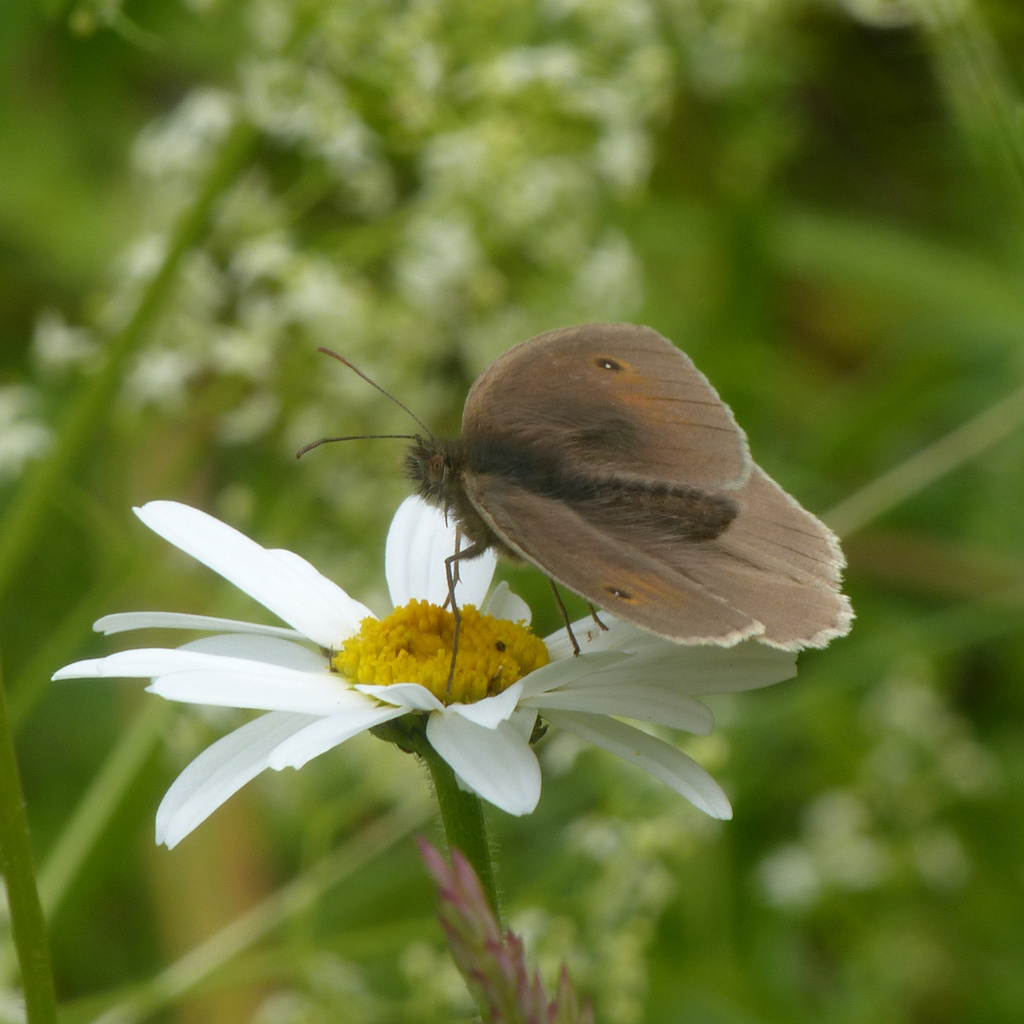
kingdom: Animalia
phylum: Arthropoda
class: Insecta
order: Lepidoptera
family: Nymphalidae
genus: Maniola
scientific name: Maniola jurtina
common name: Meadow brown
